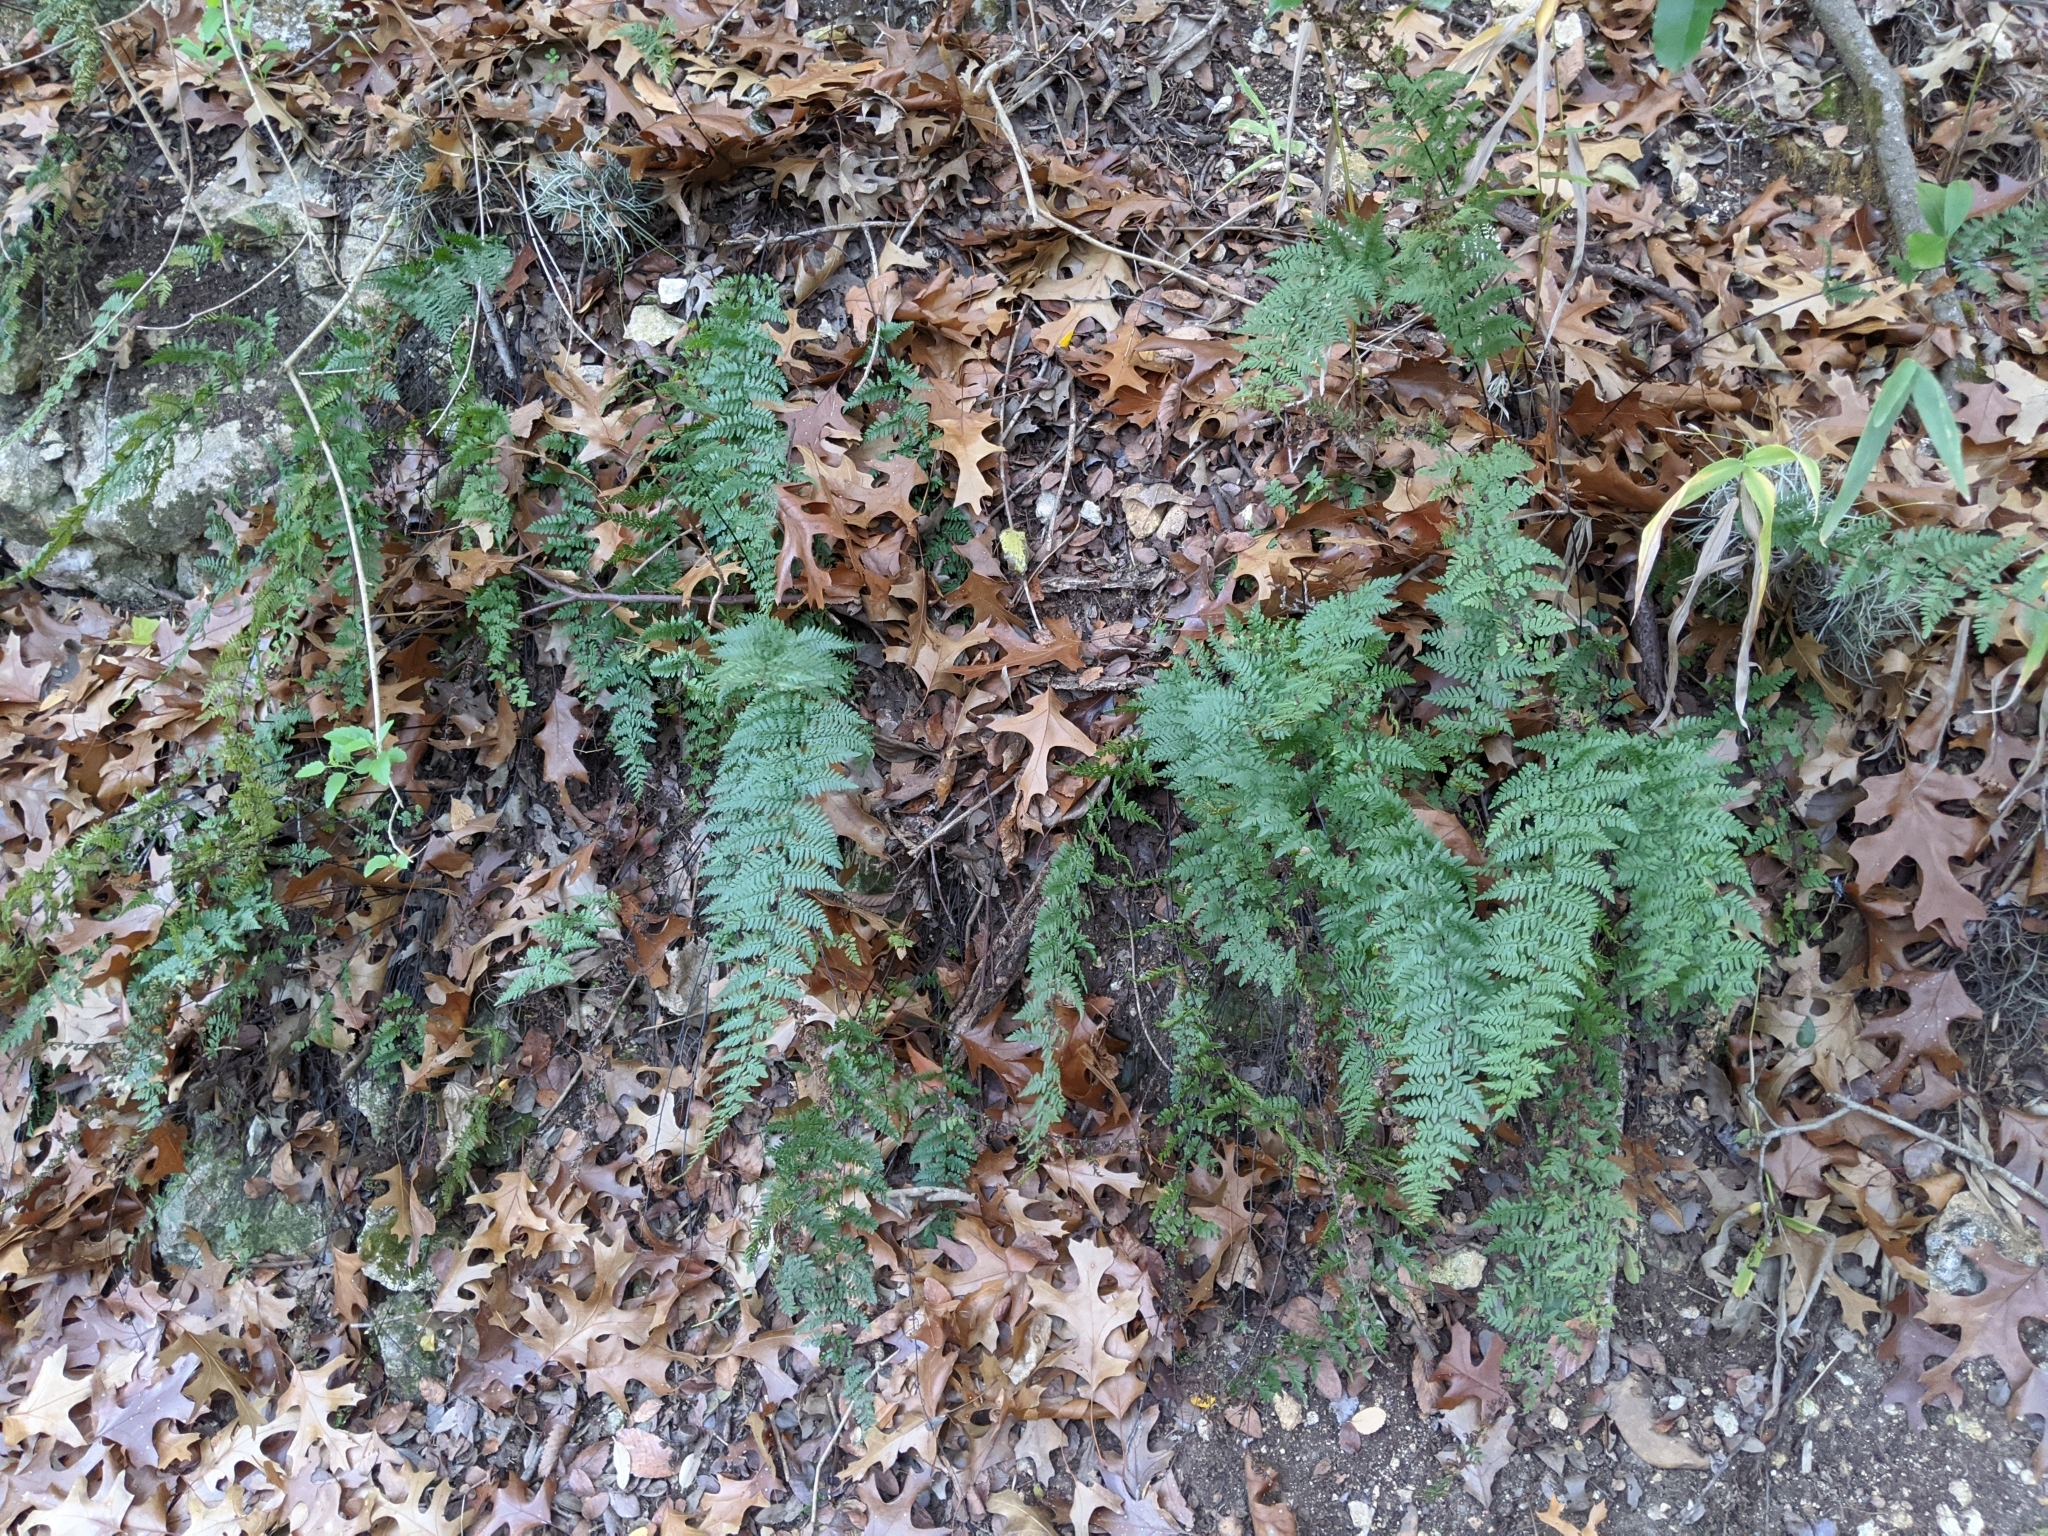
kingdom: Plantae
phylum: Tracheophyta
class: Polypodiopsida
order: Polypodiales
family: Pteridaceae
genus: Myriopteris
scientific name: Myriopteris alabamensis
